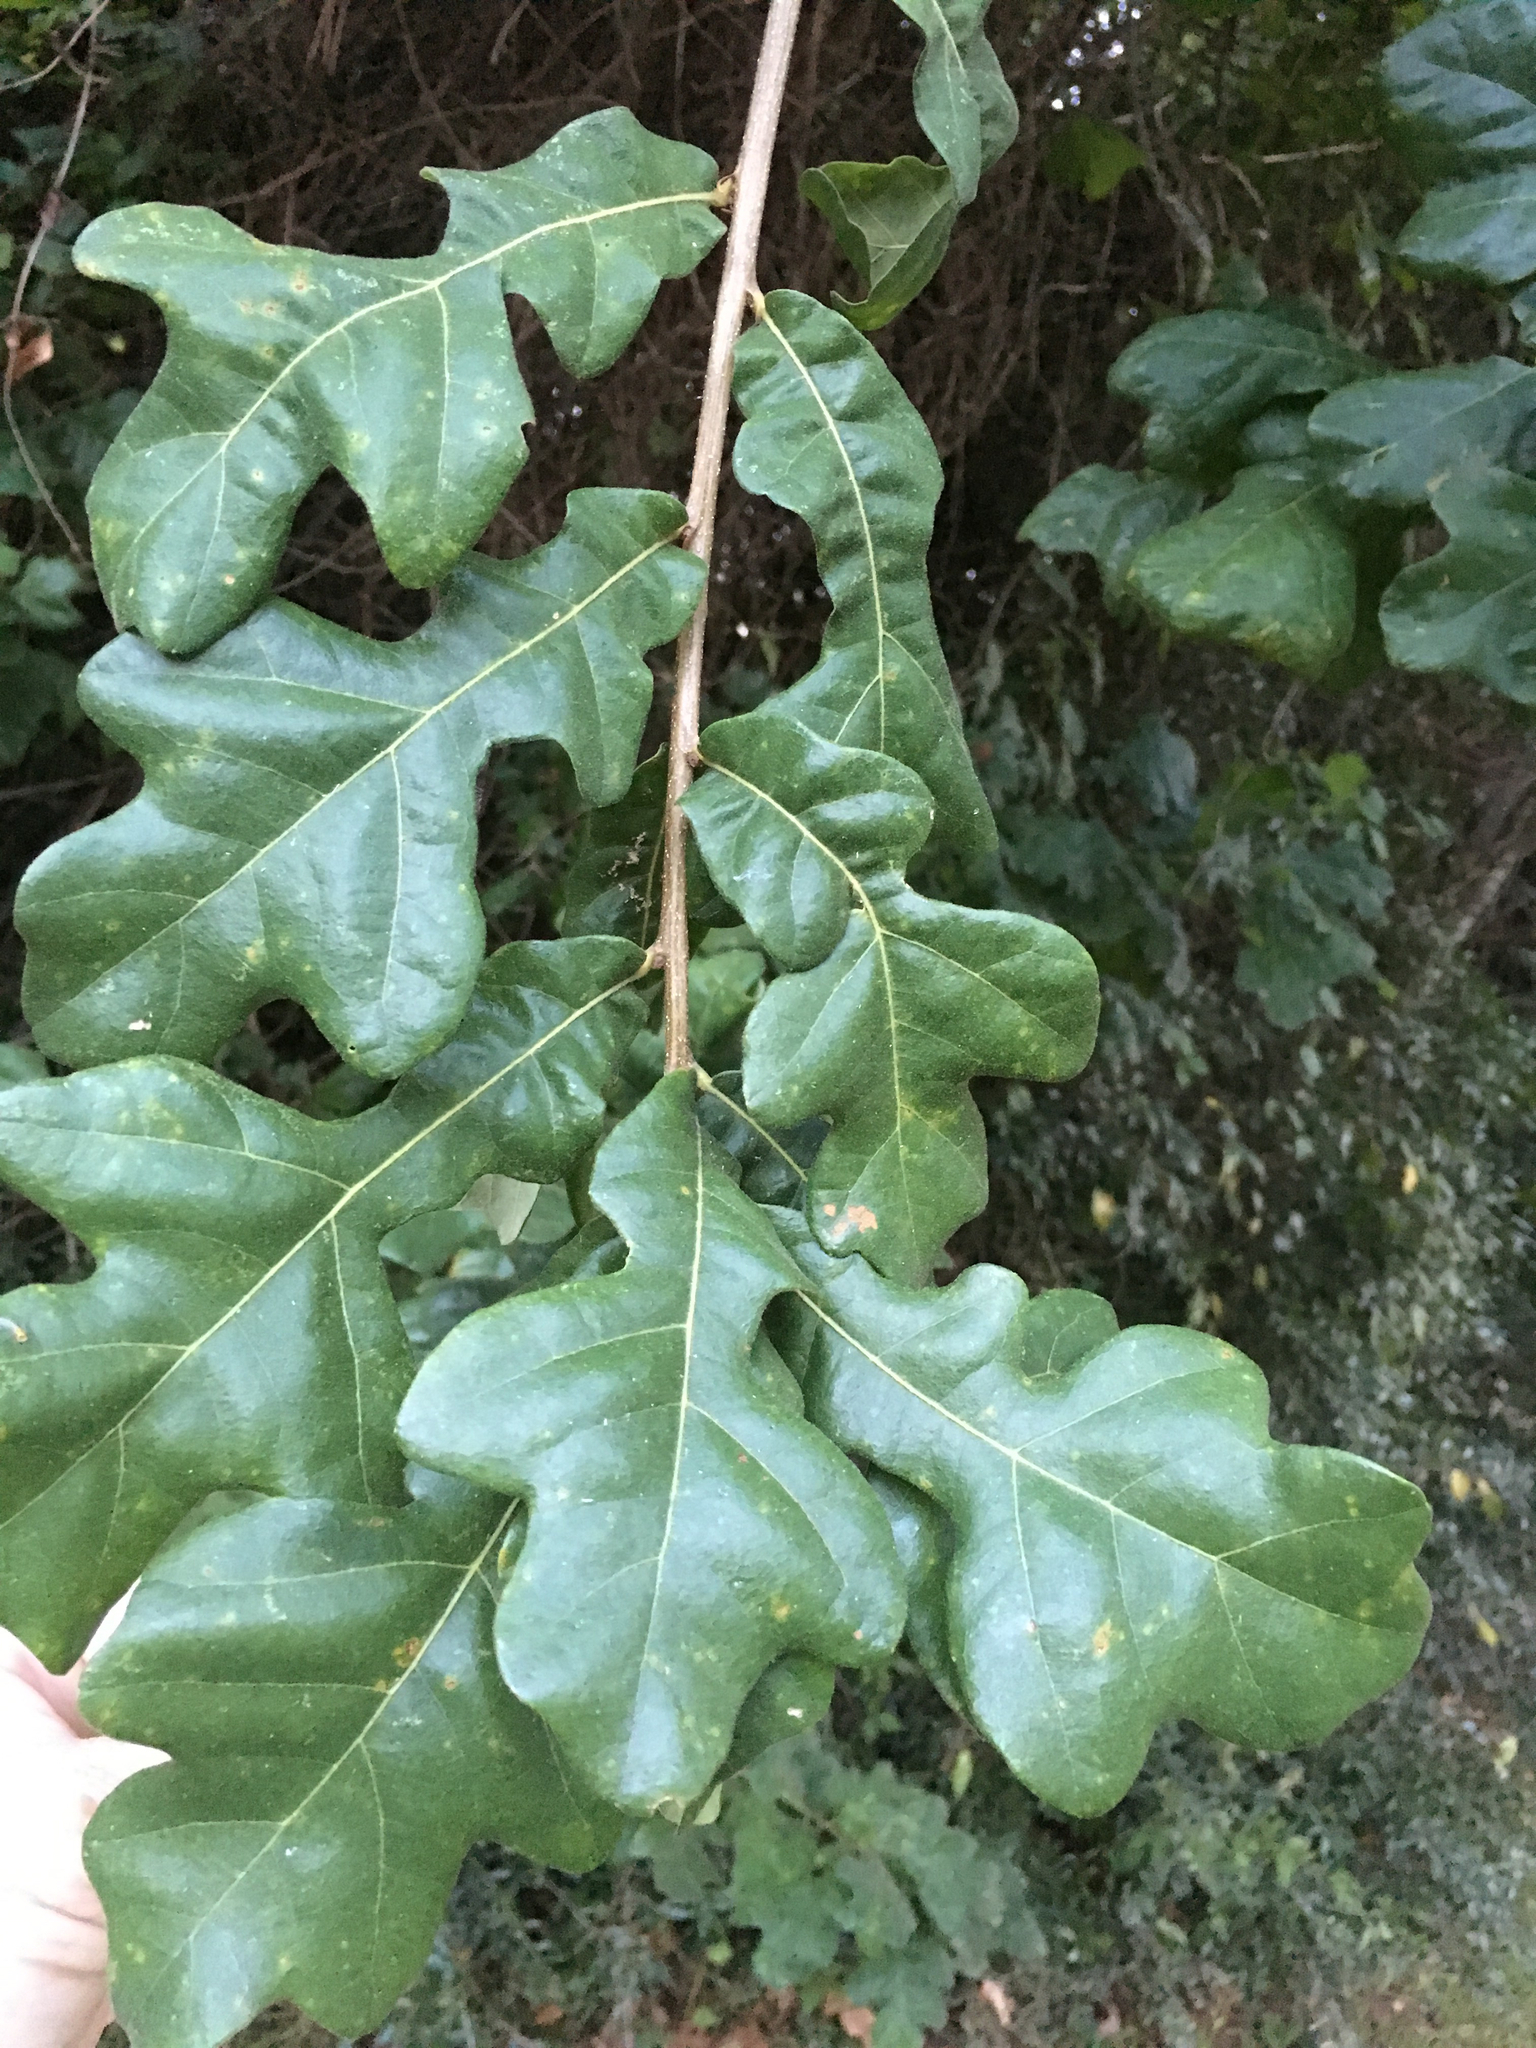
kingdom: Plantae
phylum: Tracheophyta
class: Magnoliopsida
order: Fagales
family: Fagaceae
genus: Quercus
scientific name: Quercus similis
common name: Delta post oak
